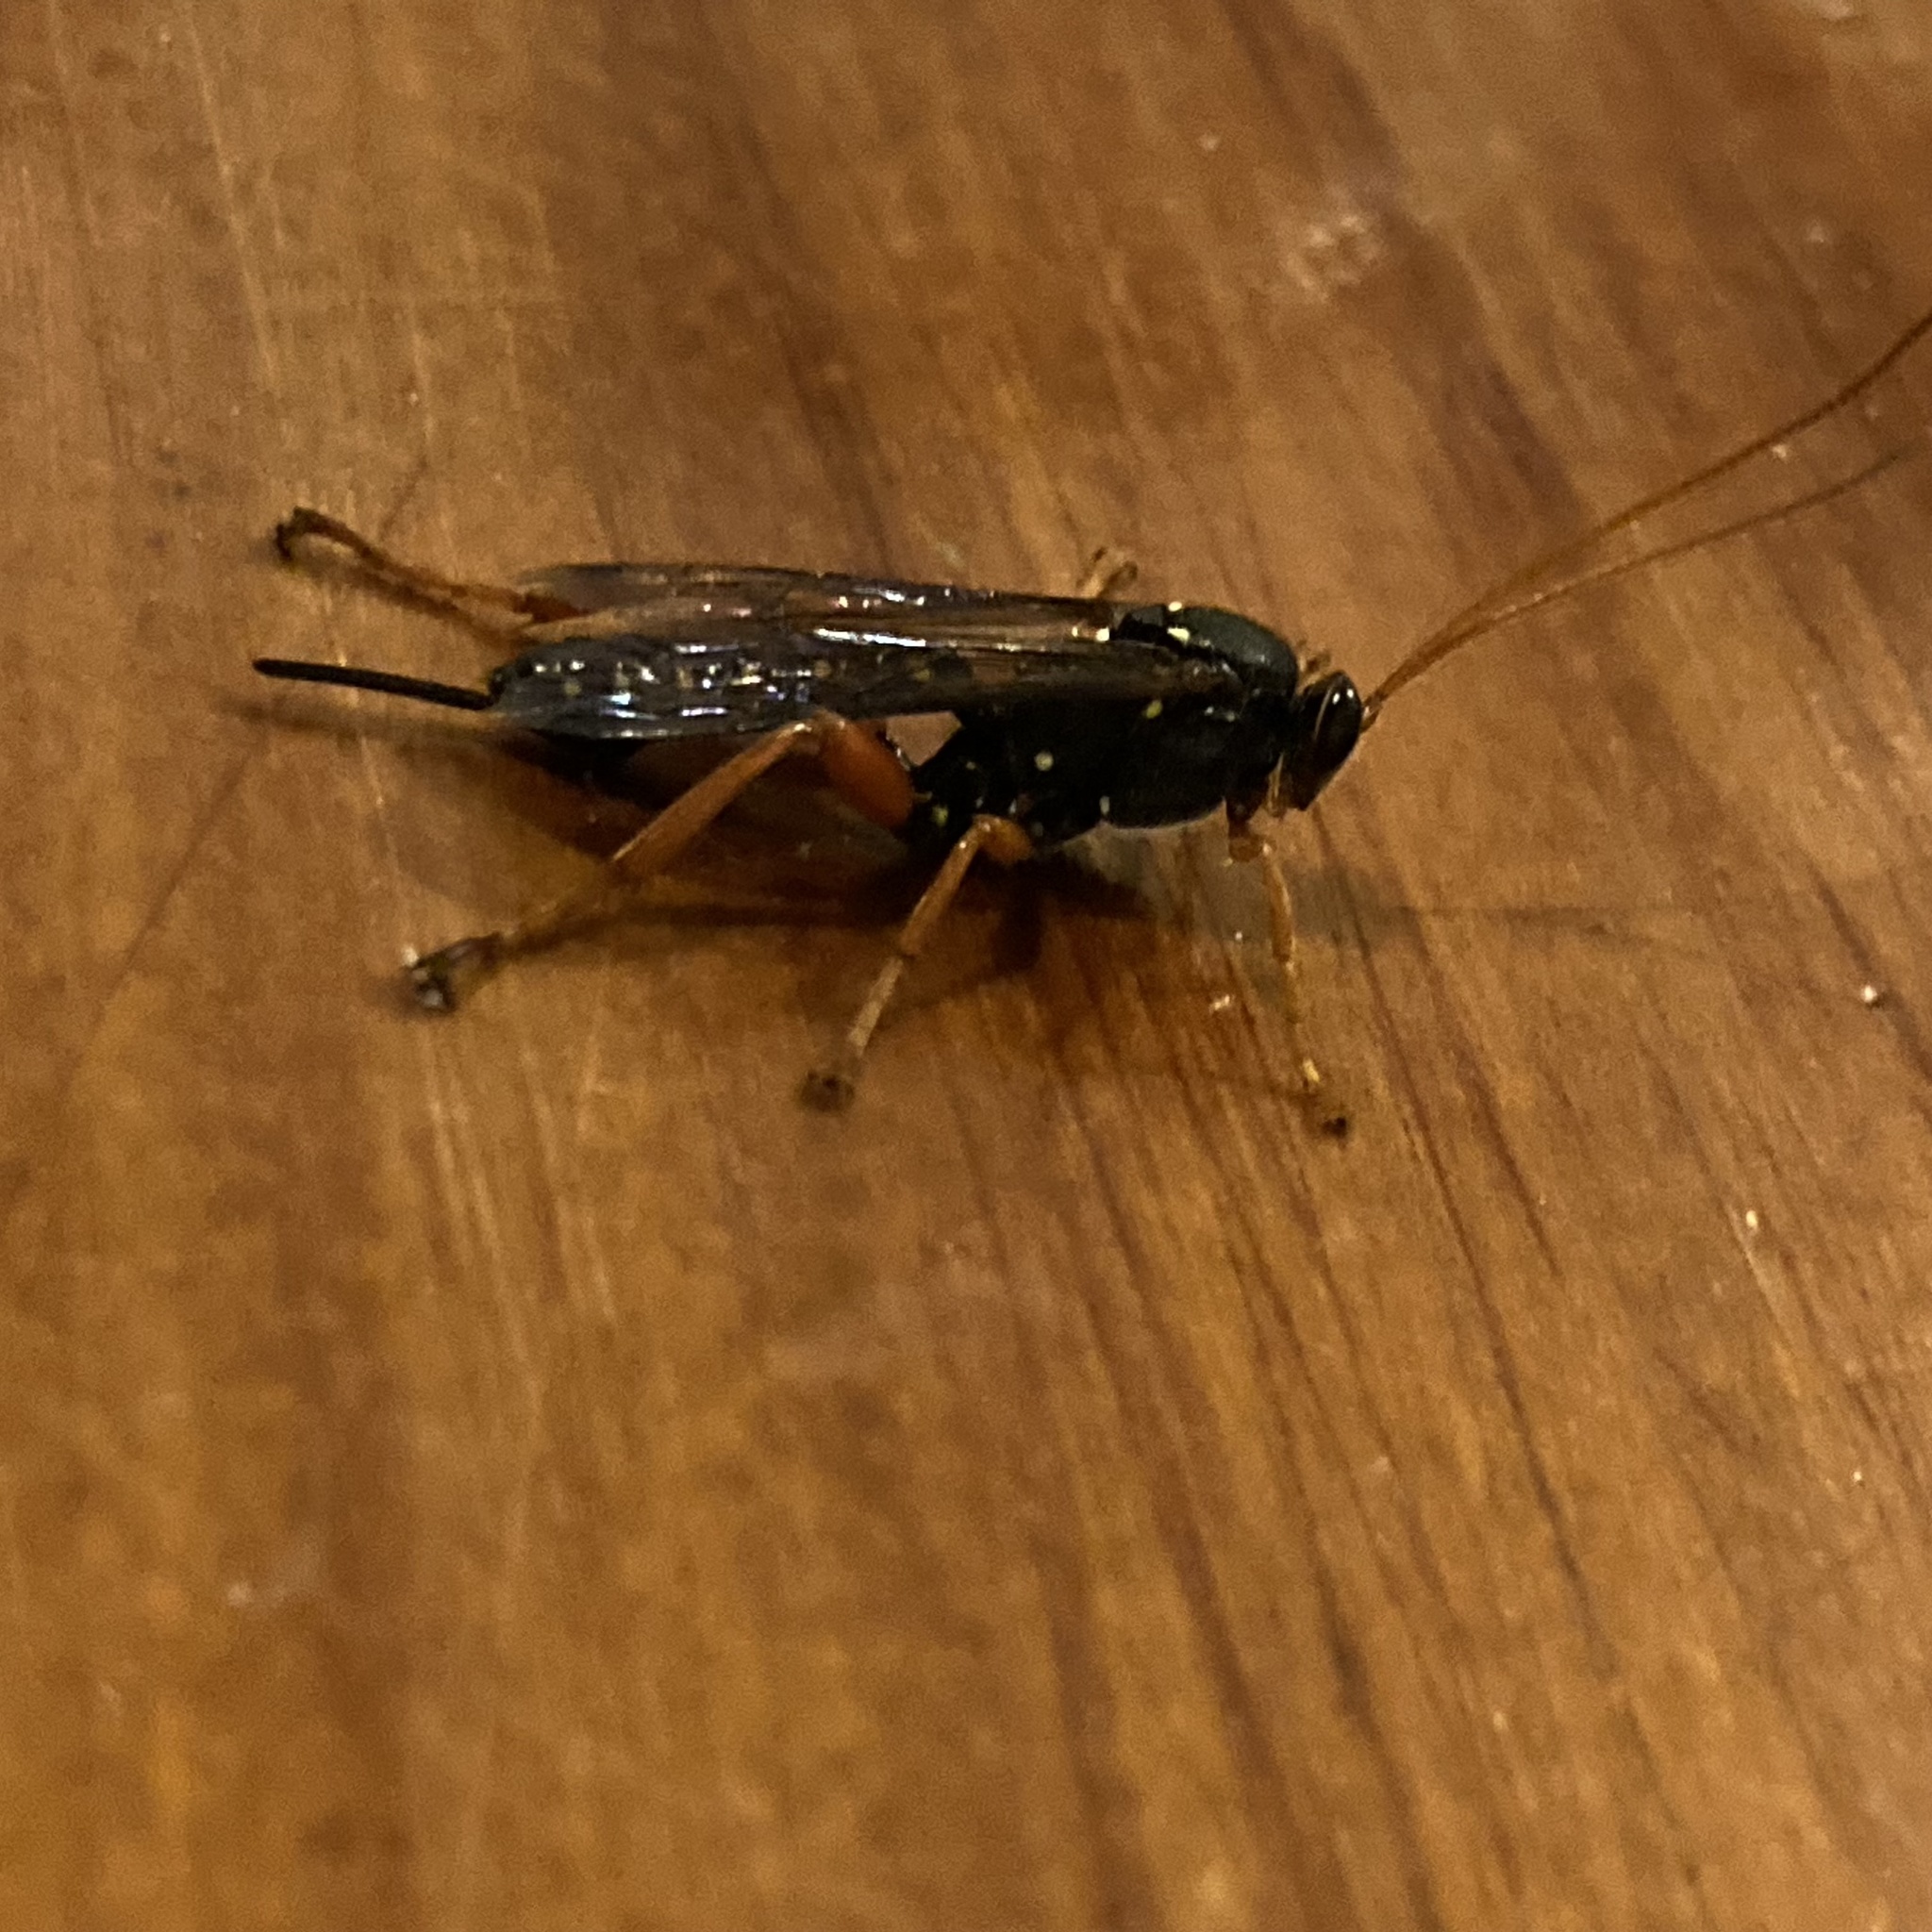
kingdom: Animalia
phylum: Arthropoda
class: Insecta
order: Hymenoptera
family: Ichneumonidae
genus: Echthromorpha
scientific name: Echthromorpha intricatoria
